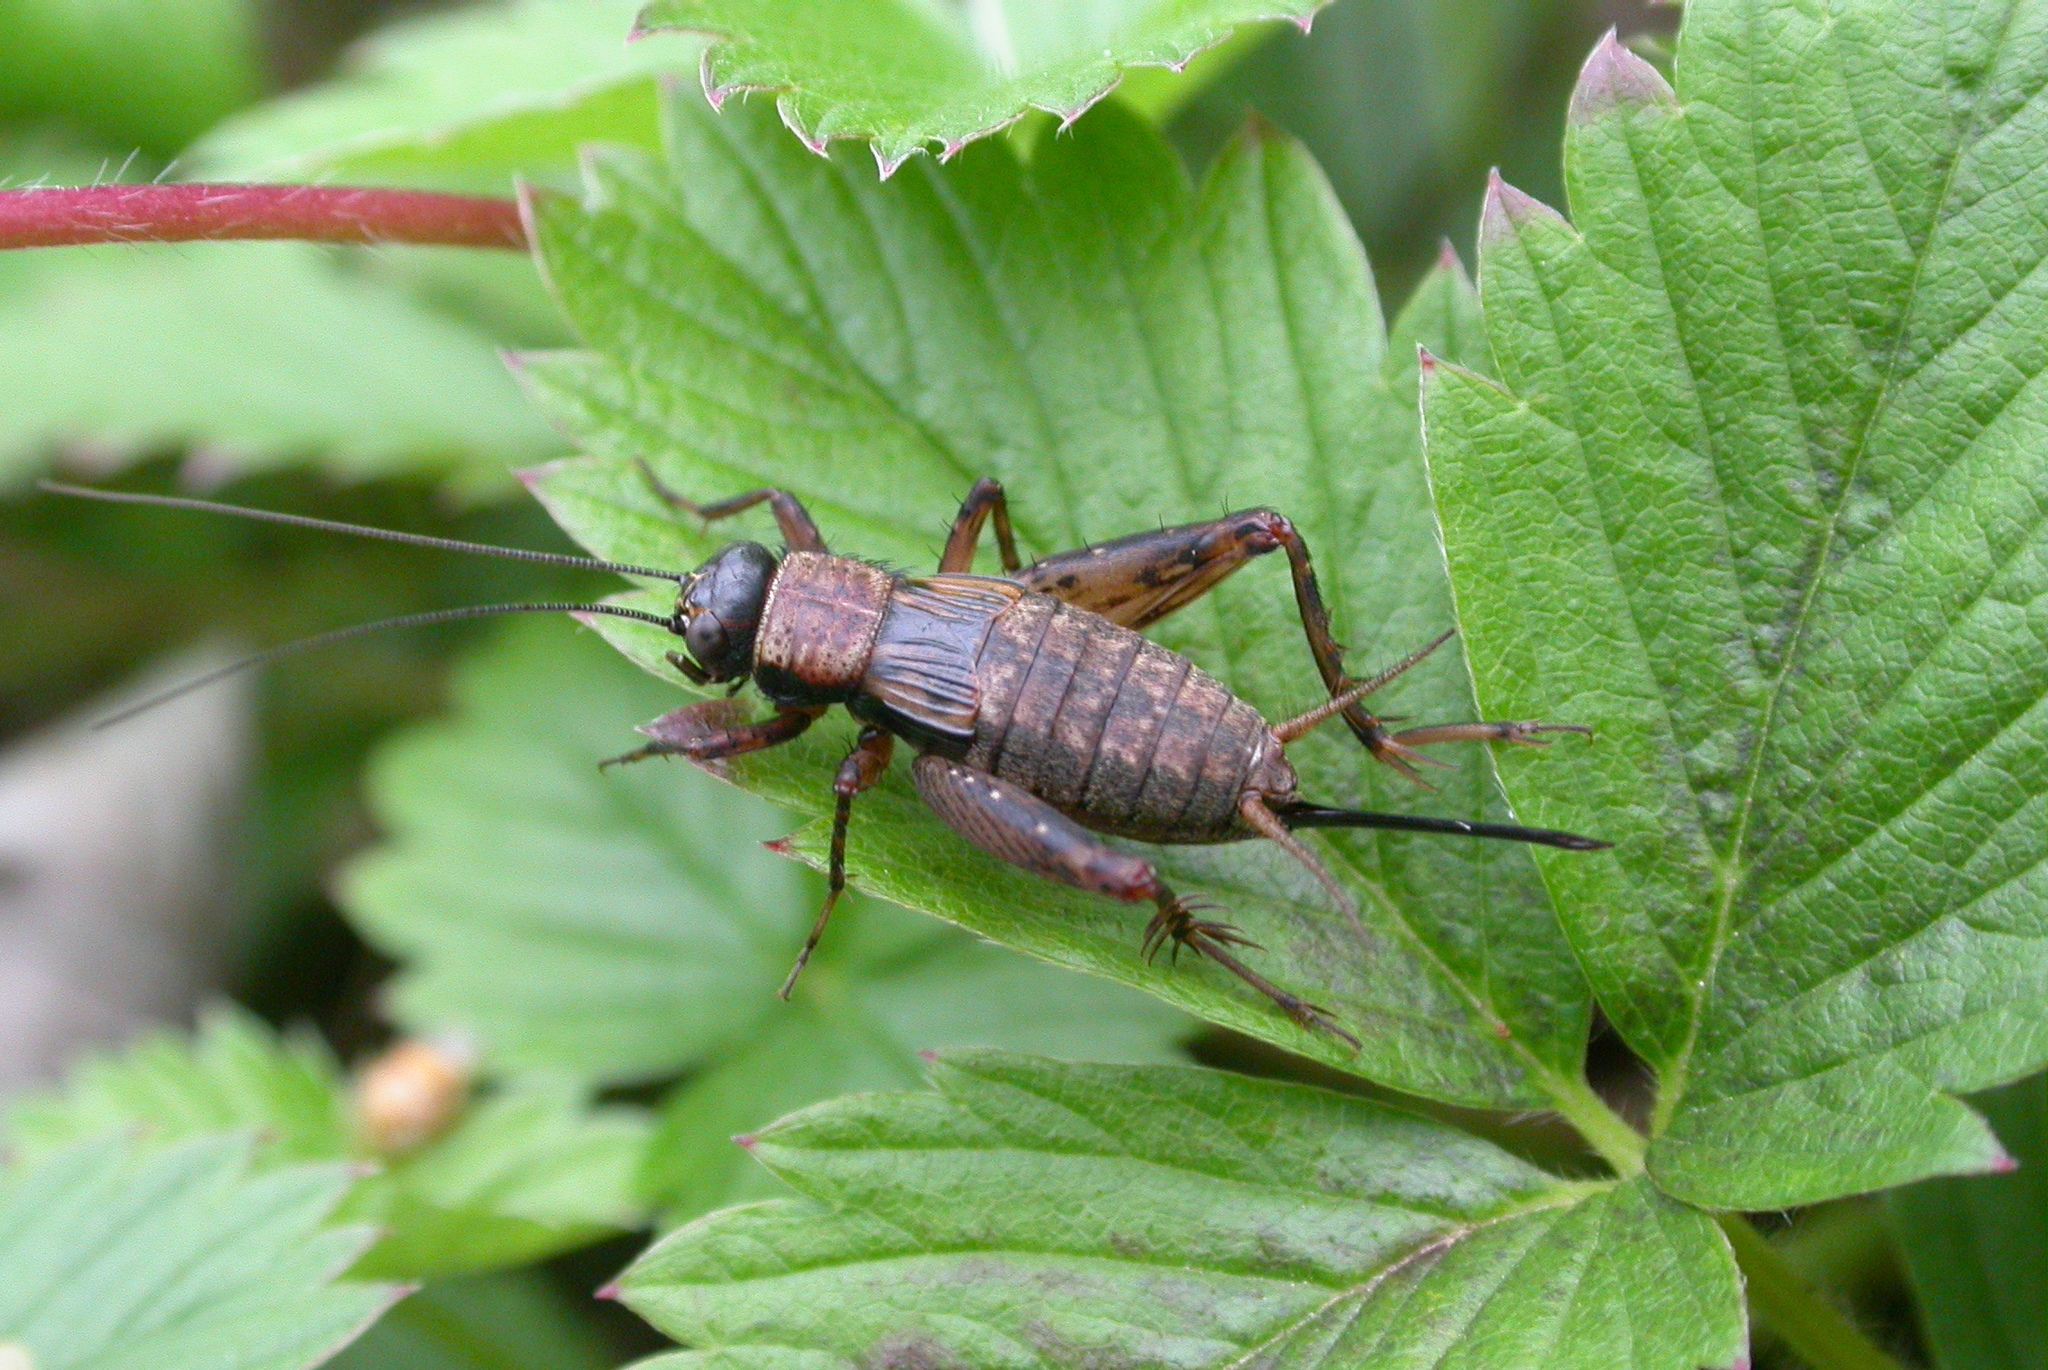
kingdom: Animalia
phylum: Arthropoda
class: Insecta
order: Orthoptera
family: Trigonidiidae
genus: Nemobius
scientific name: Nemobius sylvestris
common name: Wood-cricket
